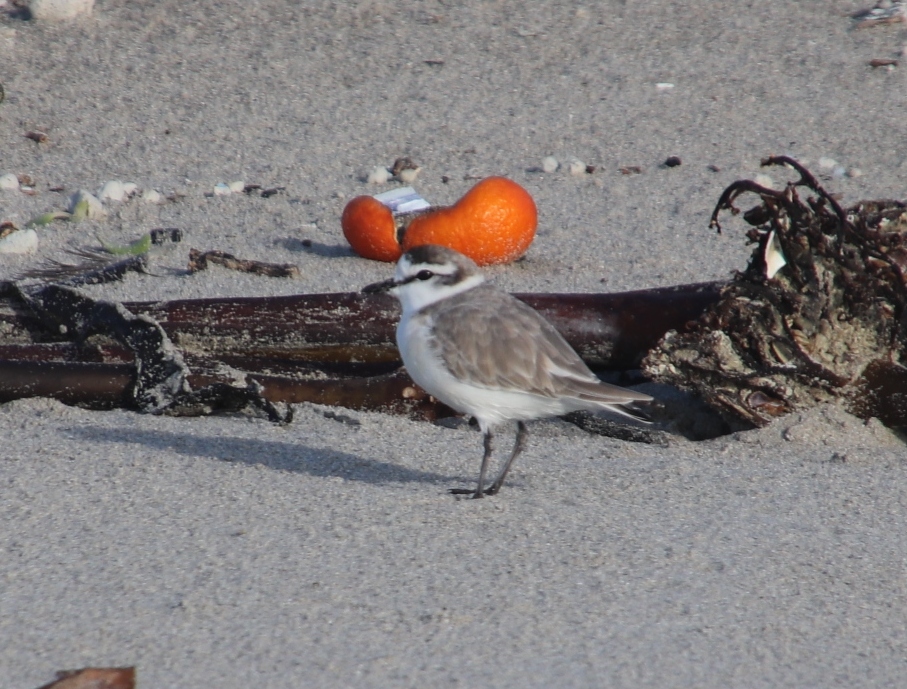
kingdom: Animalia
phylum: Chordata
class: Aves
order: Charadriiformes
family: Charadriidae
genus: Anarhynchus
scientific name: Anarhynchus
